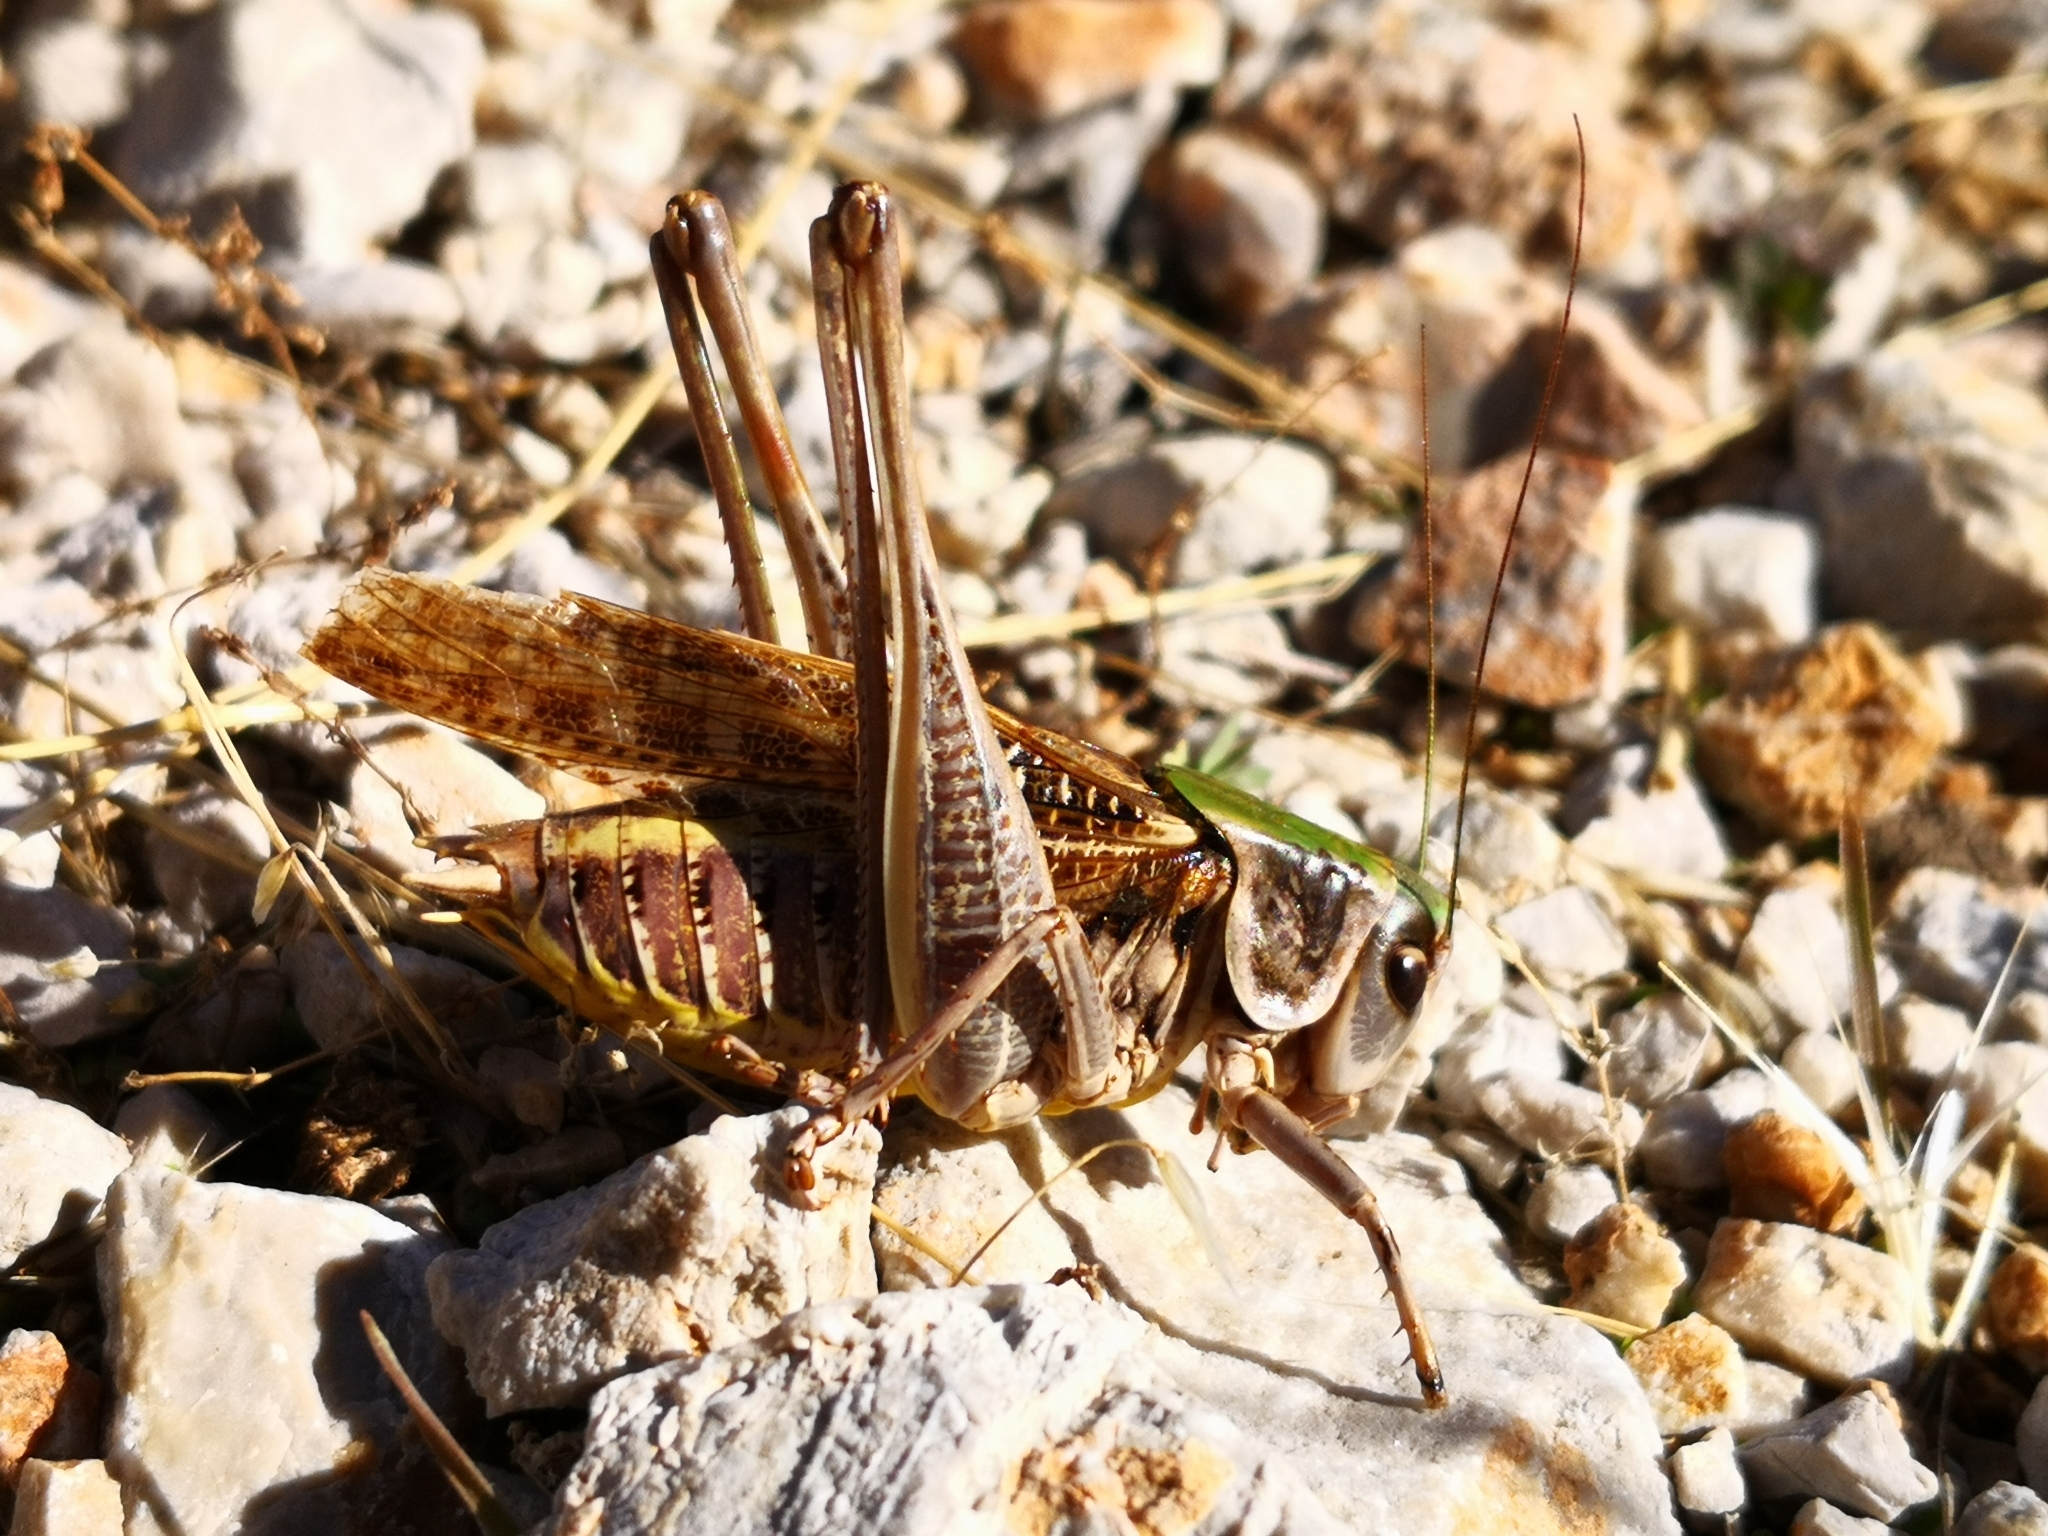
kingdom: Animalia
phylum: Arthropoda
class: Insecta
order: Orthoptera
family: Tettigoniidae
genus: Decticus
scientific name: Decticus verrucivorus
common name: Wart-biter
